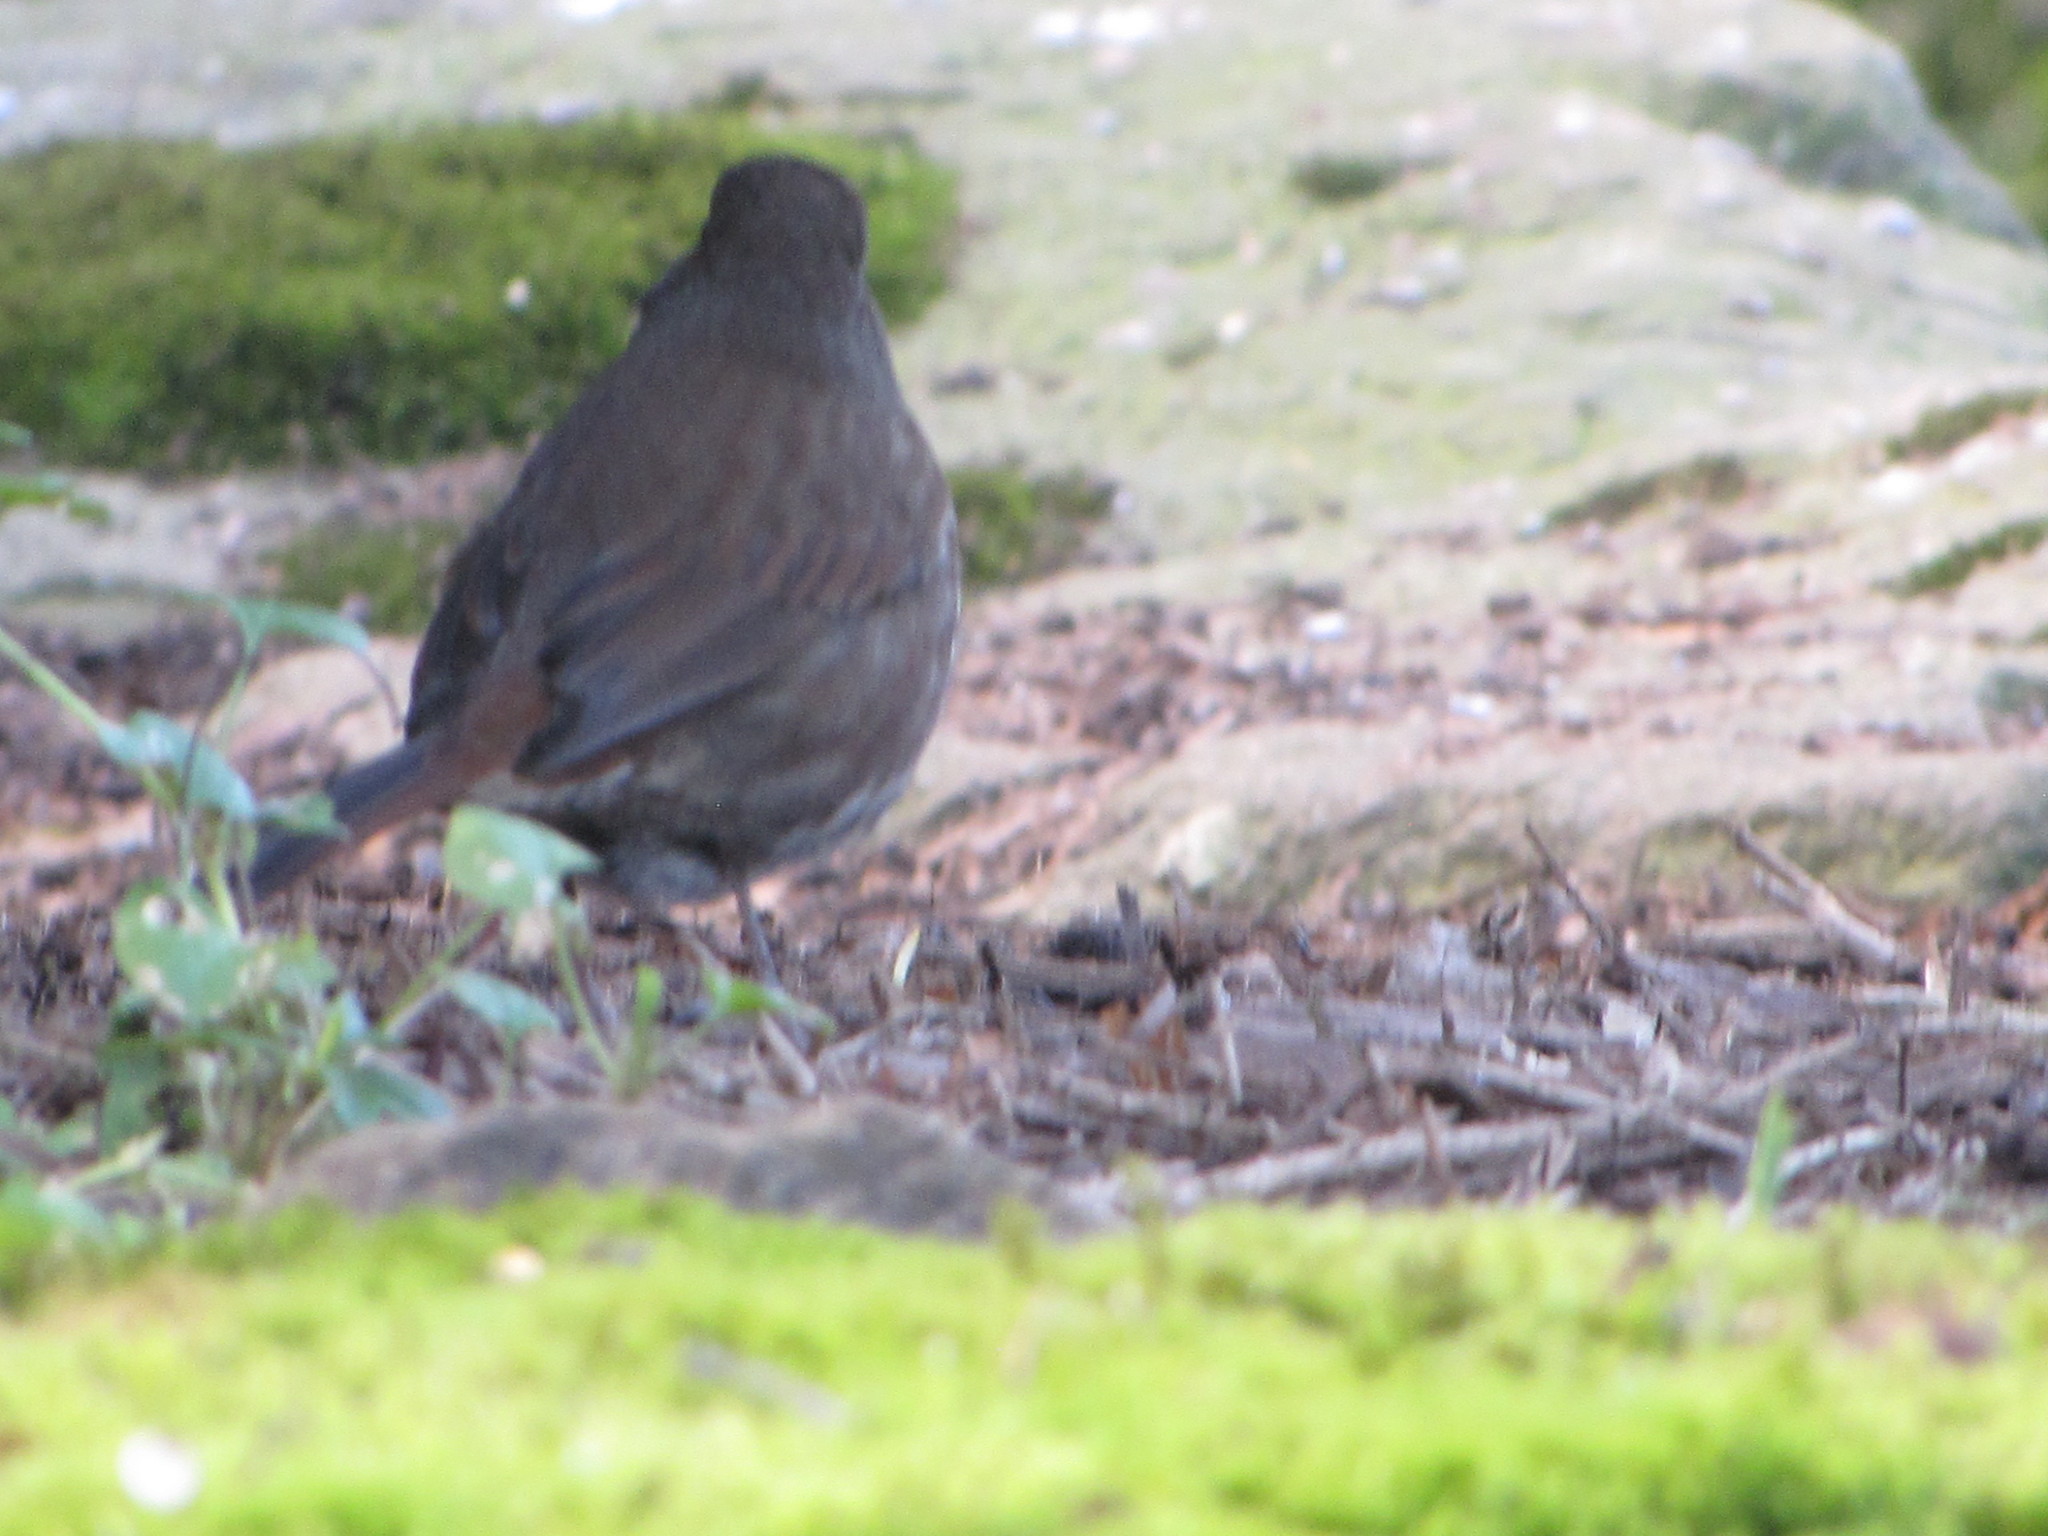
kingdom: Animalia
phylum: Chordata
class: Aves
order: Passeriformes
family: Passerellidae
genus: Passerella
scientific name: Passerella iliaca
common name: Fox sparrow
